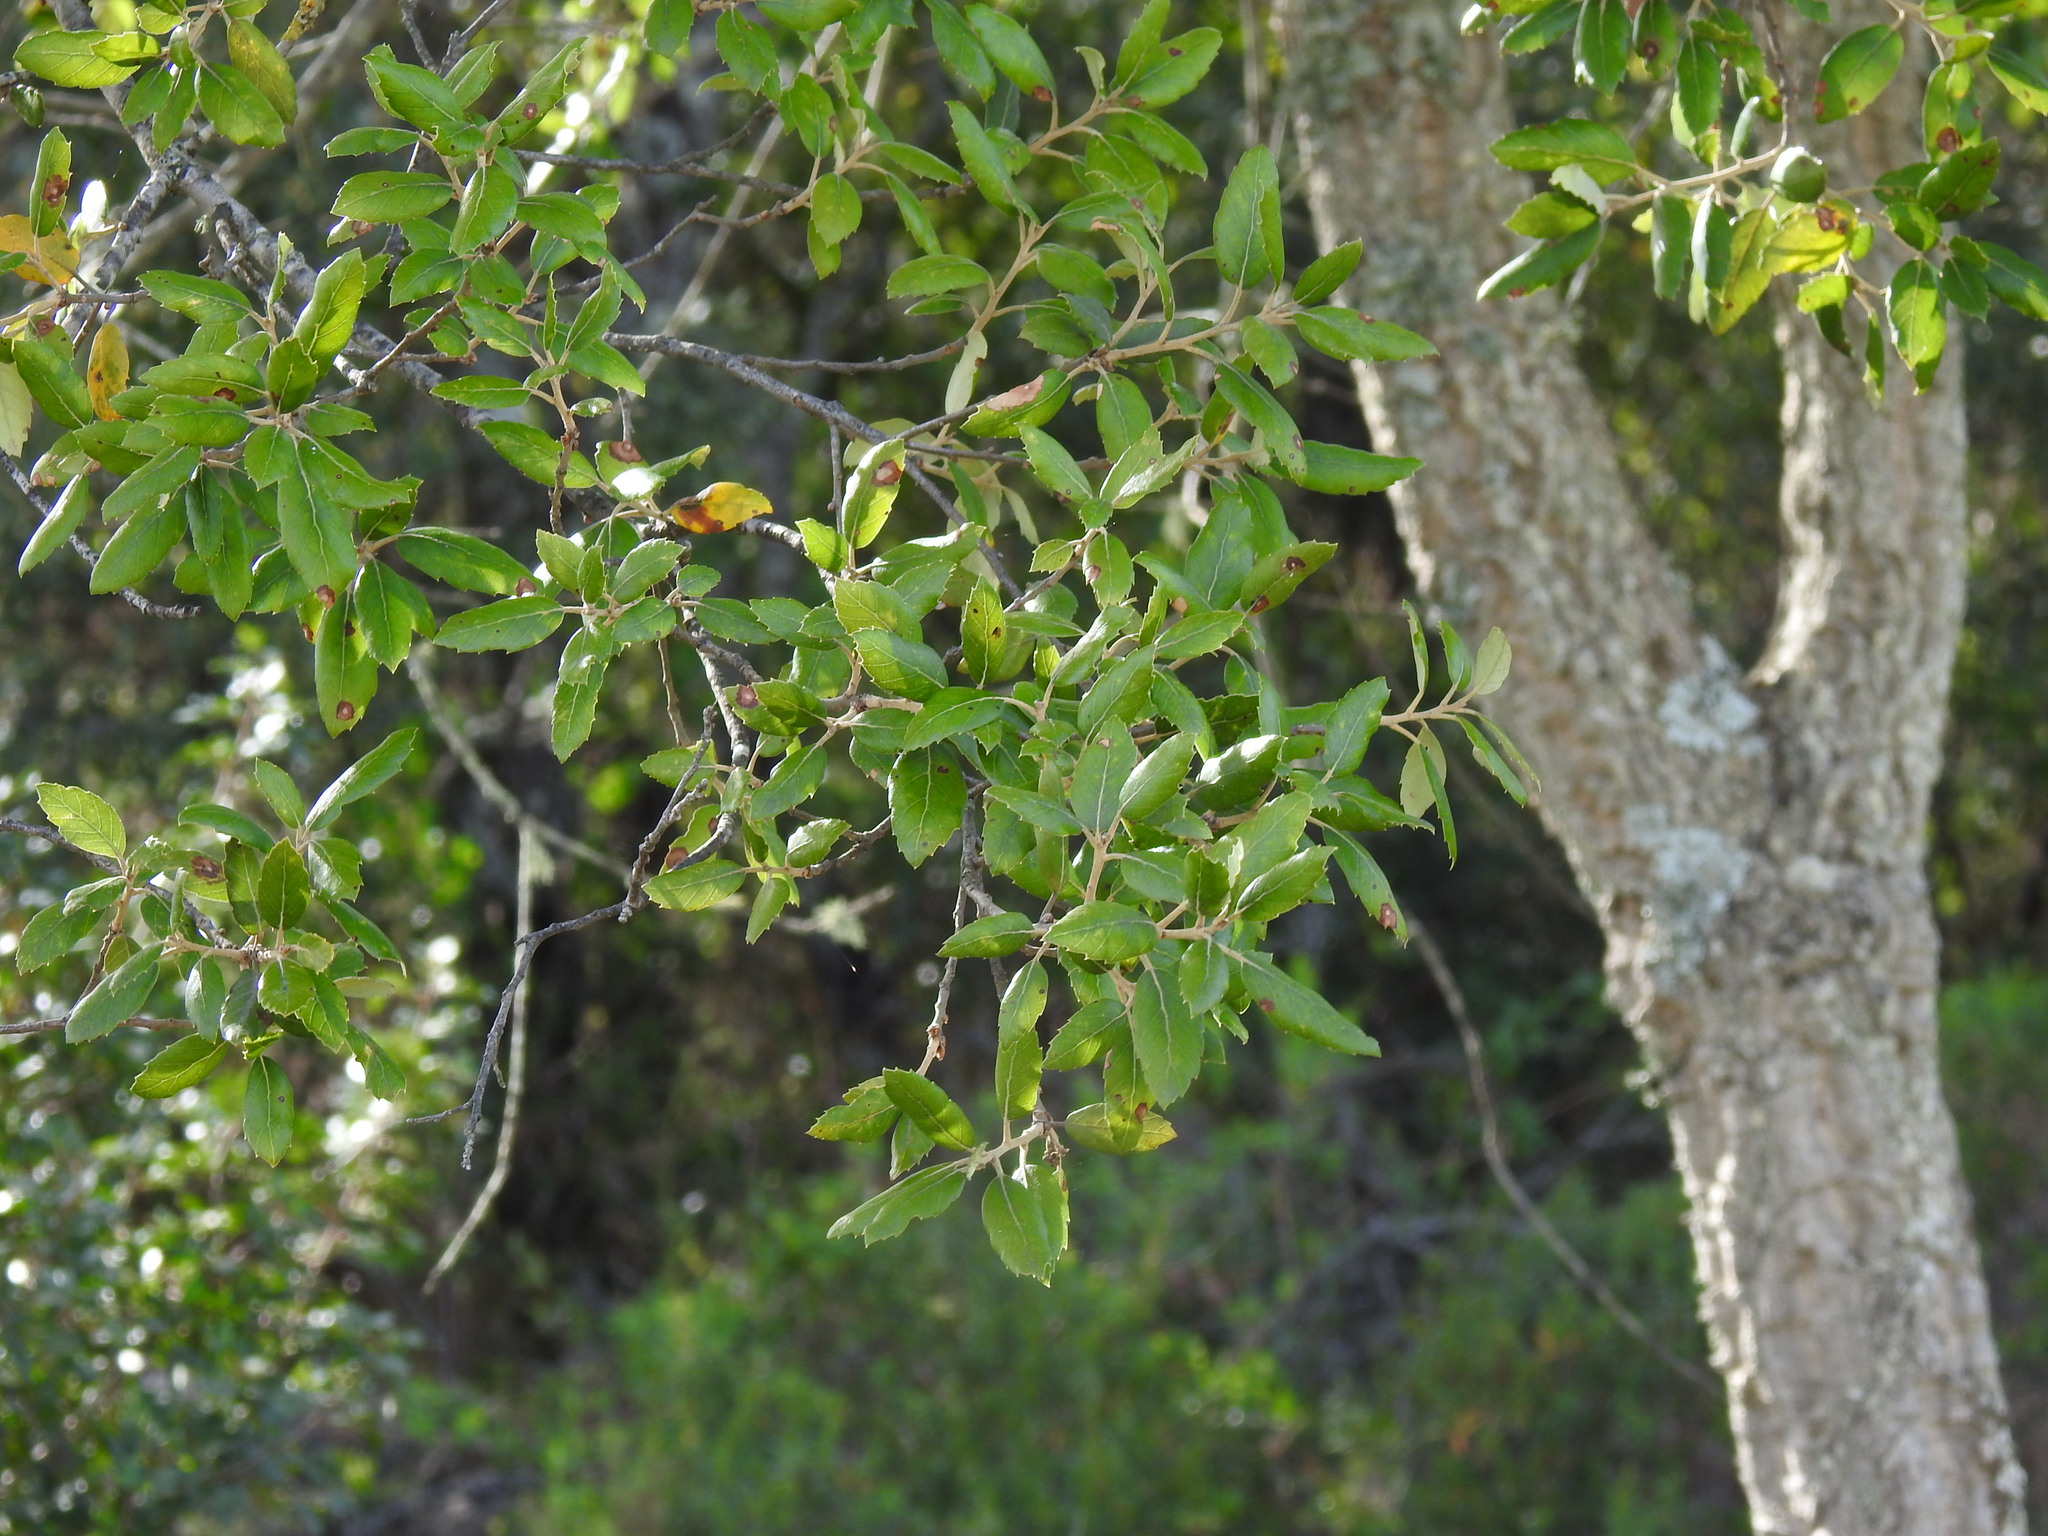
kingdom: Plantae
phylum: Tracheophyta
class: Magnoliopsida
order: Fagales
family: Fagaceae
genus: Quercus
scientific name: Quercus suber
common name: Cork oak
